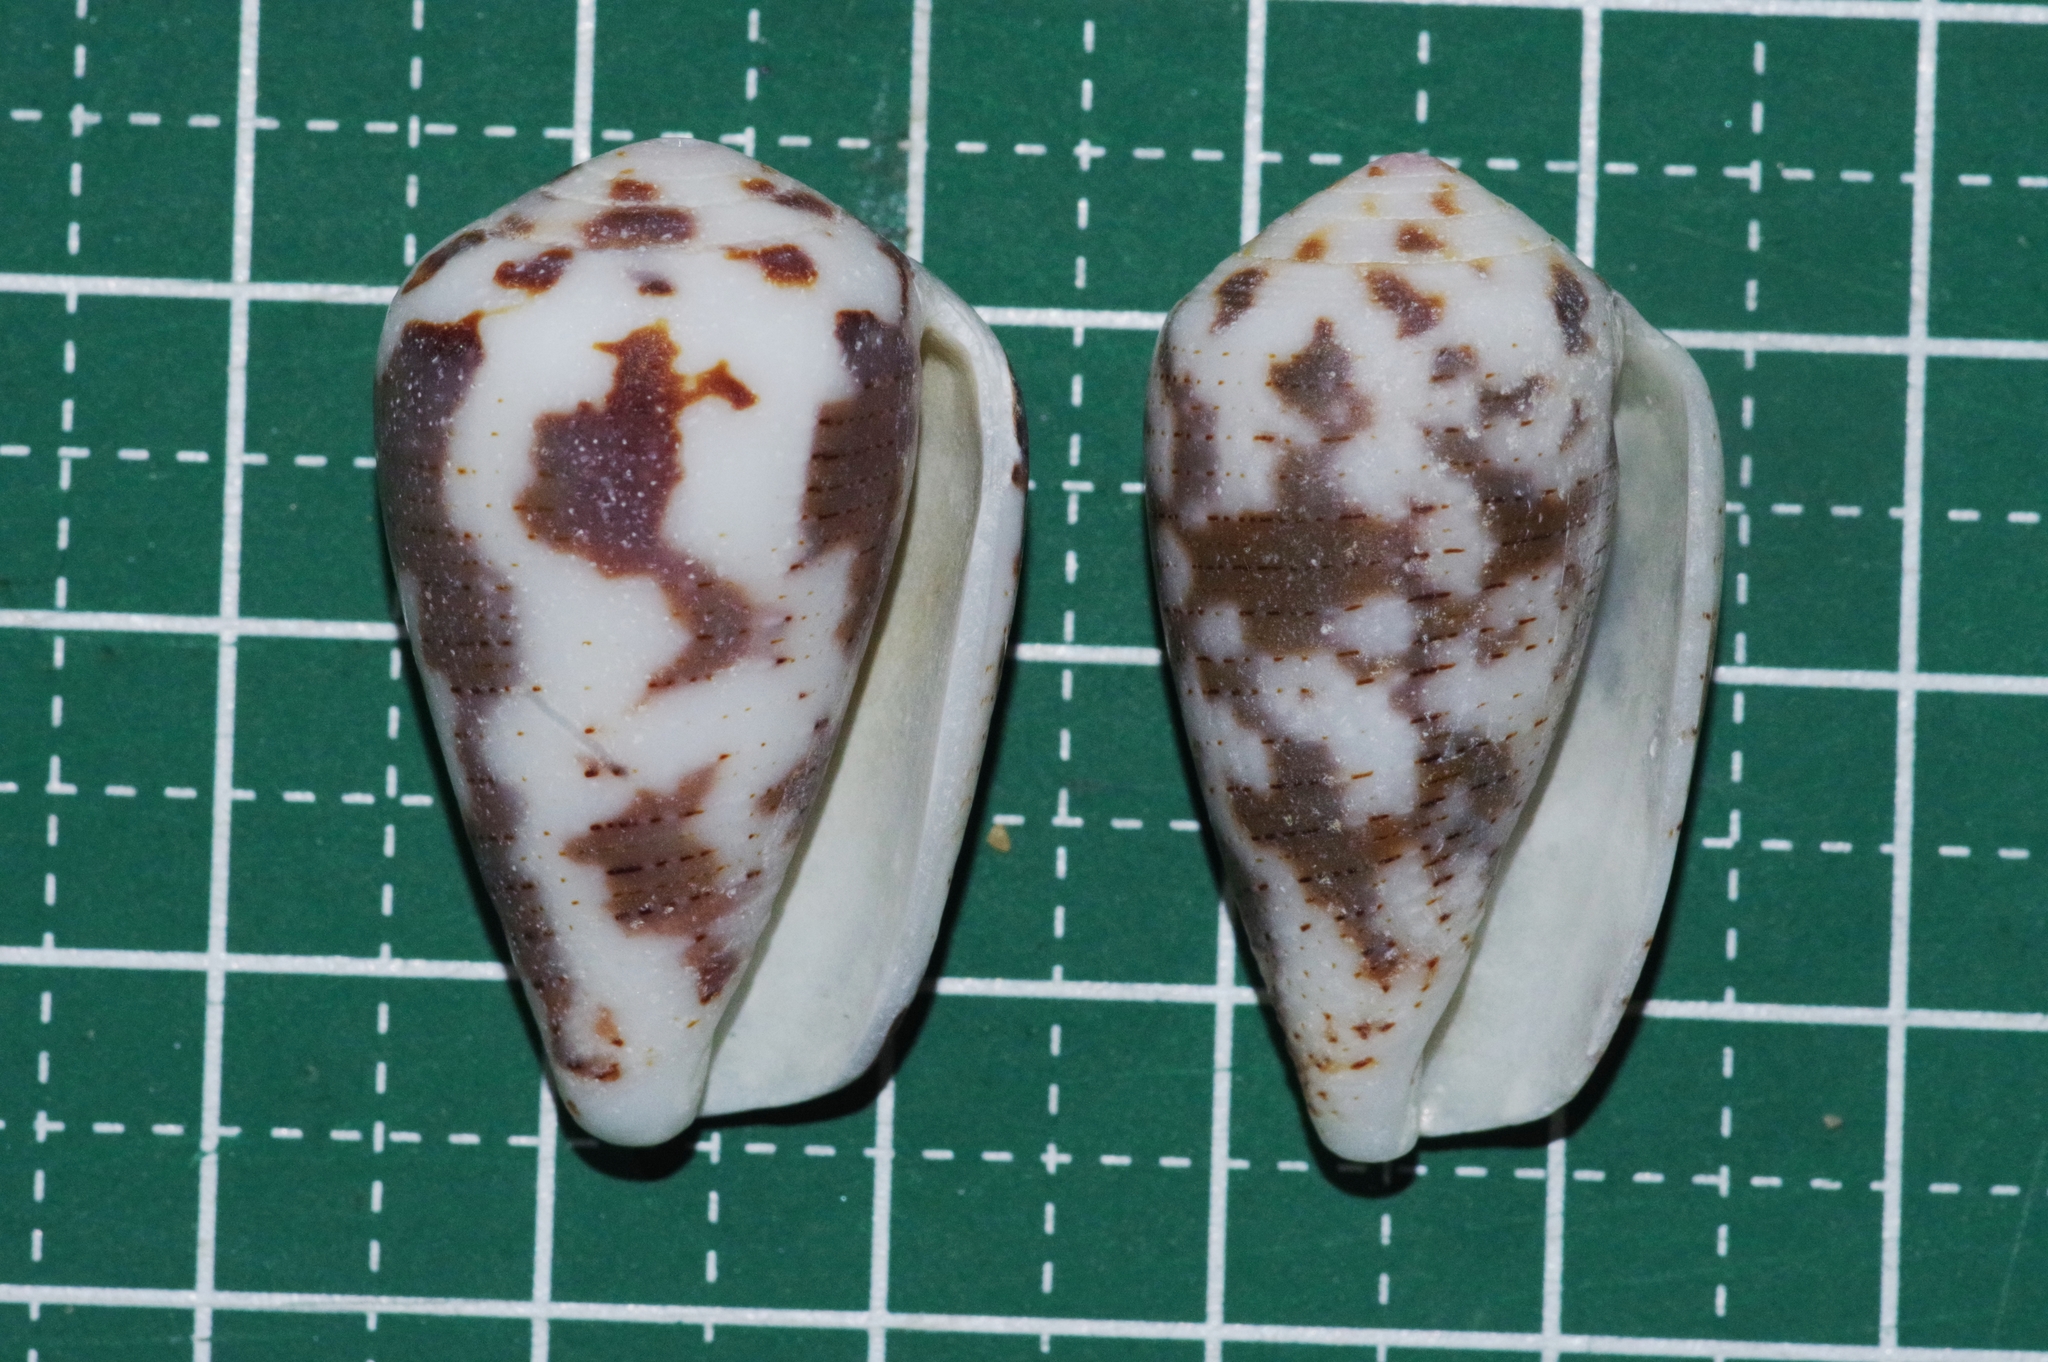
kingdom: Animalia
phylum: Mollusca
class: Gastropoda
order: Neogastropoda
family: Conidae
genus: Conus
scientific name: Conus striolatus
